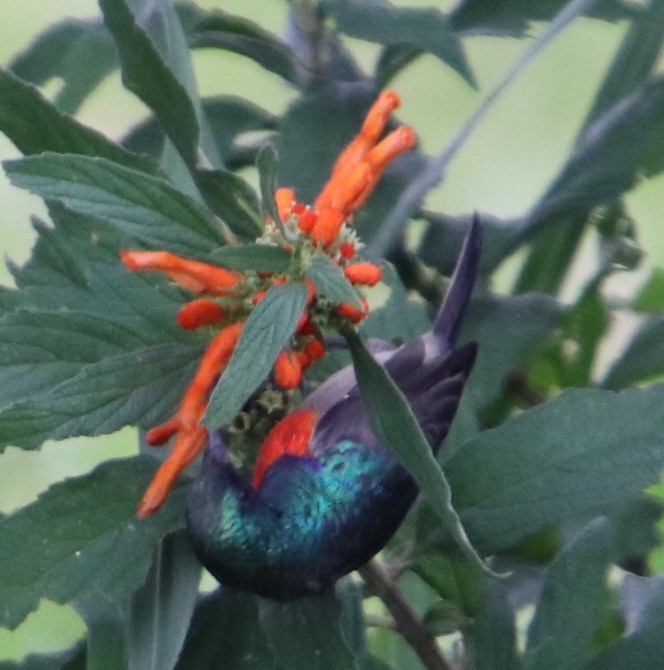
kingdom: Animalia
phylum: Chordata
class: Aves
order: Passeriformes
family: Nectariniidae
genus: Cinnyris
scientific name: Cinnyris afer
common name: Greater double-collared sunbird
